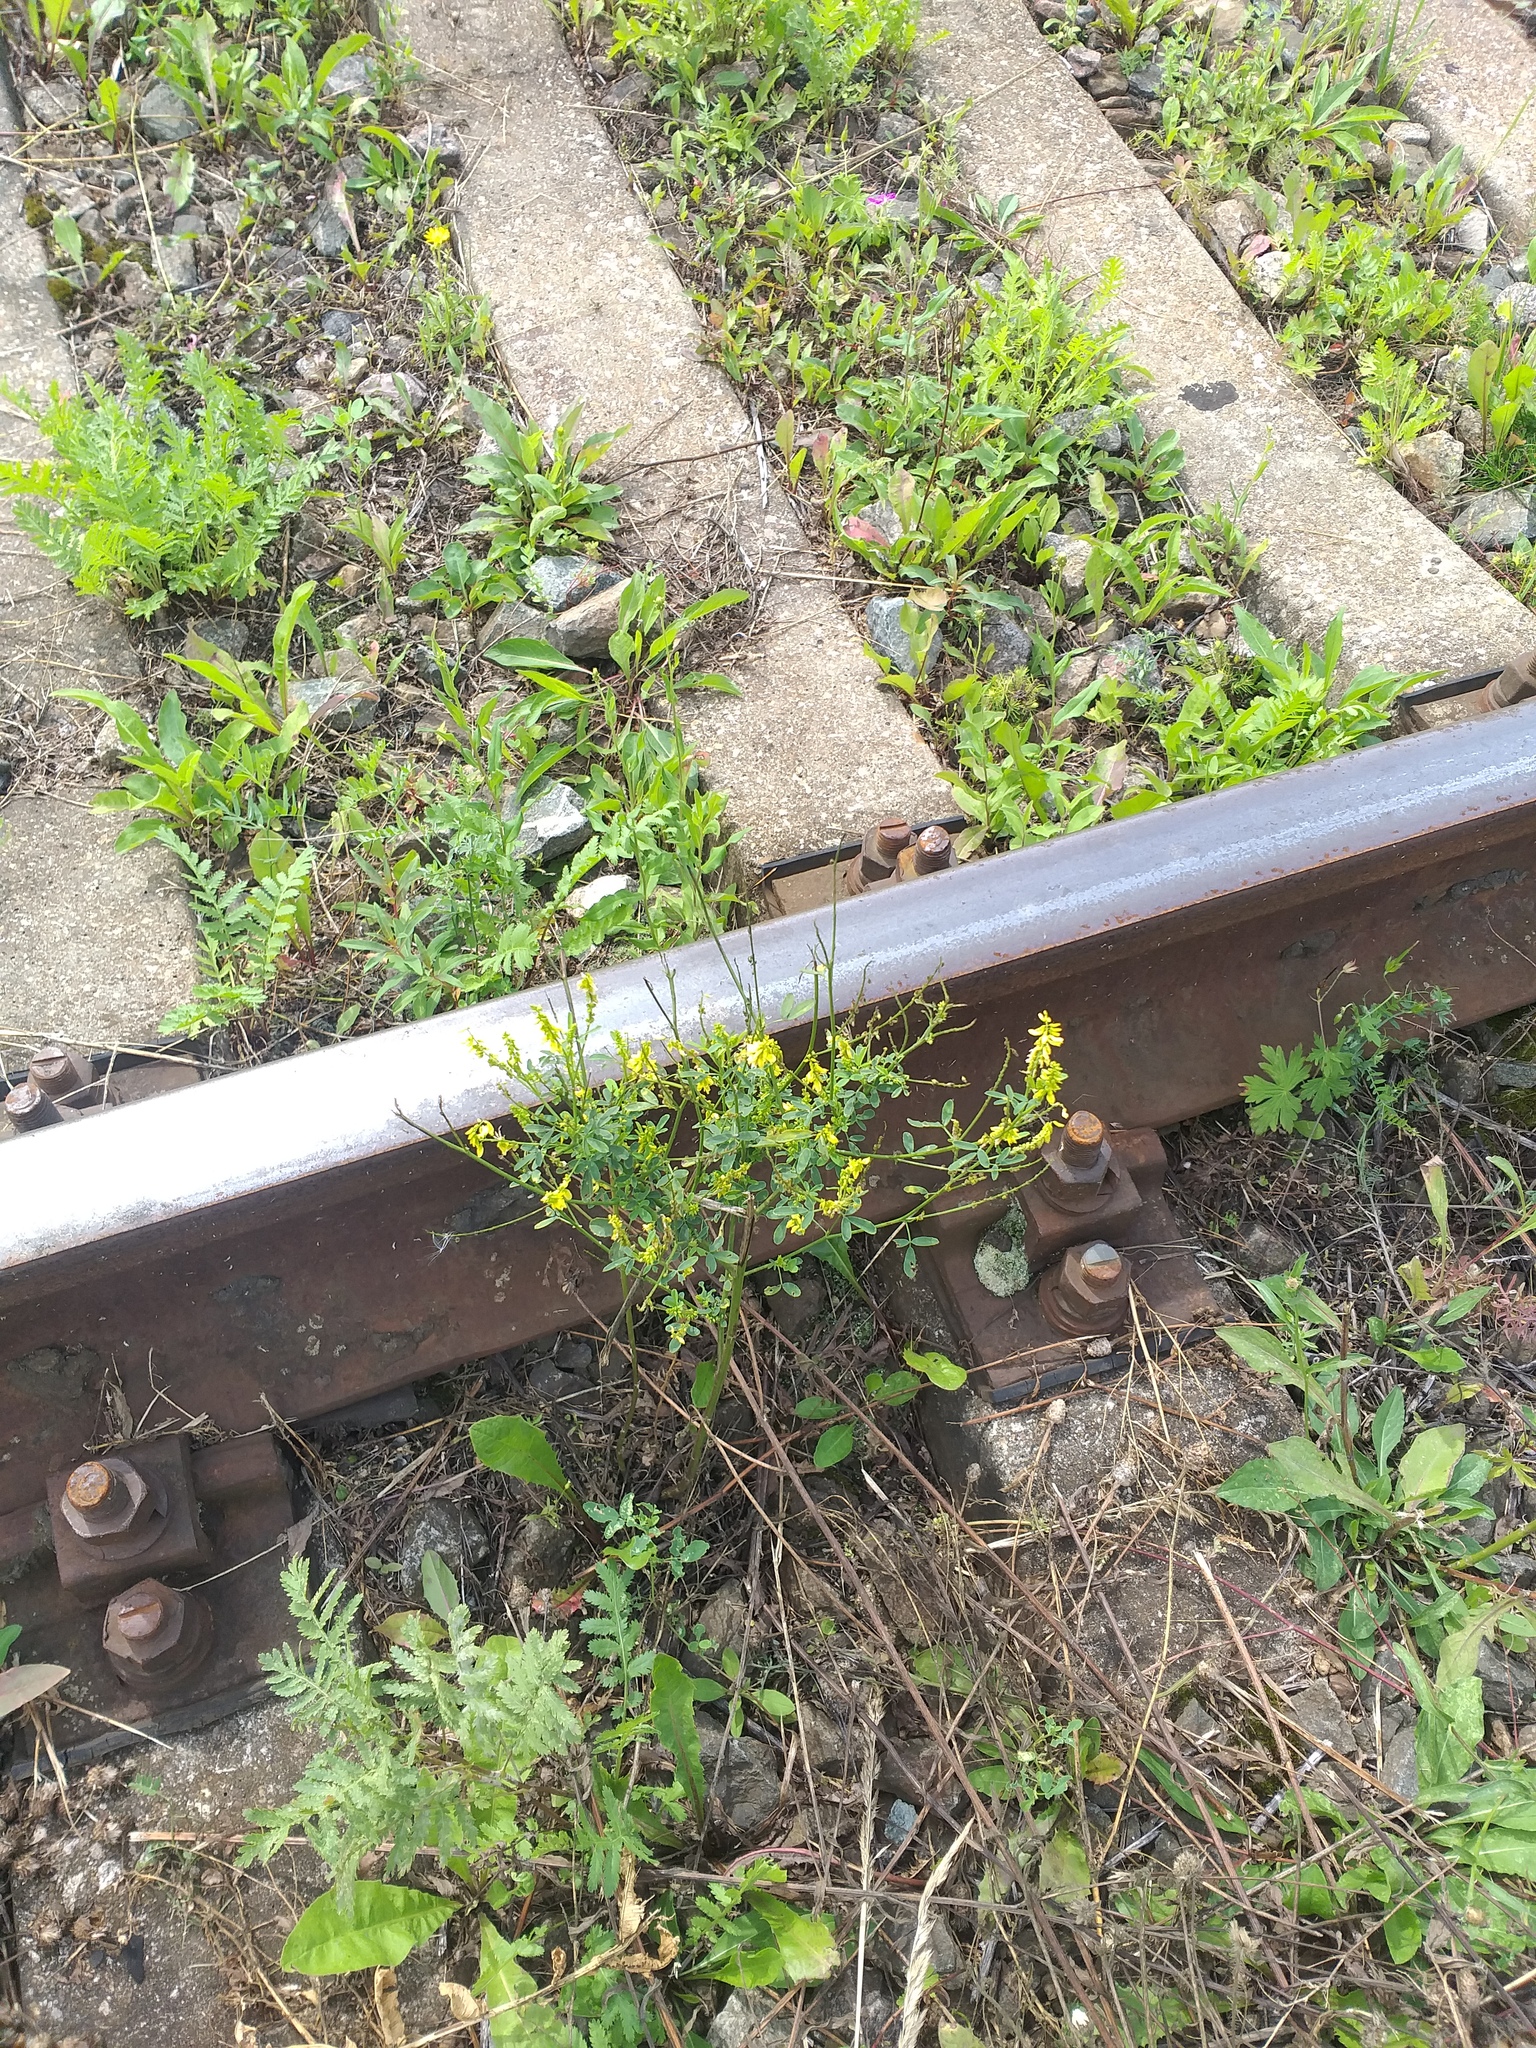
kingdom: Plantae
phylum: Tracheophyta
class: Magnoliopsida
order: Fabales
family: Fabaceae
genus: Melilotus
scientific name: Melilotus officinalis
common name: Sweetclover
